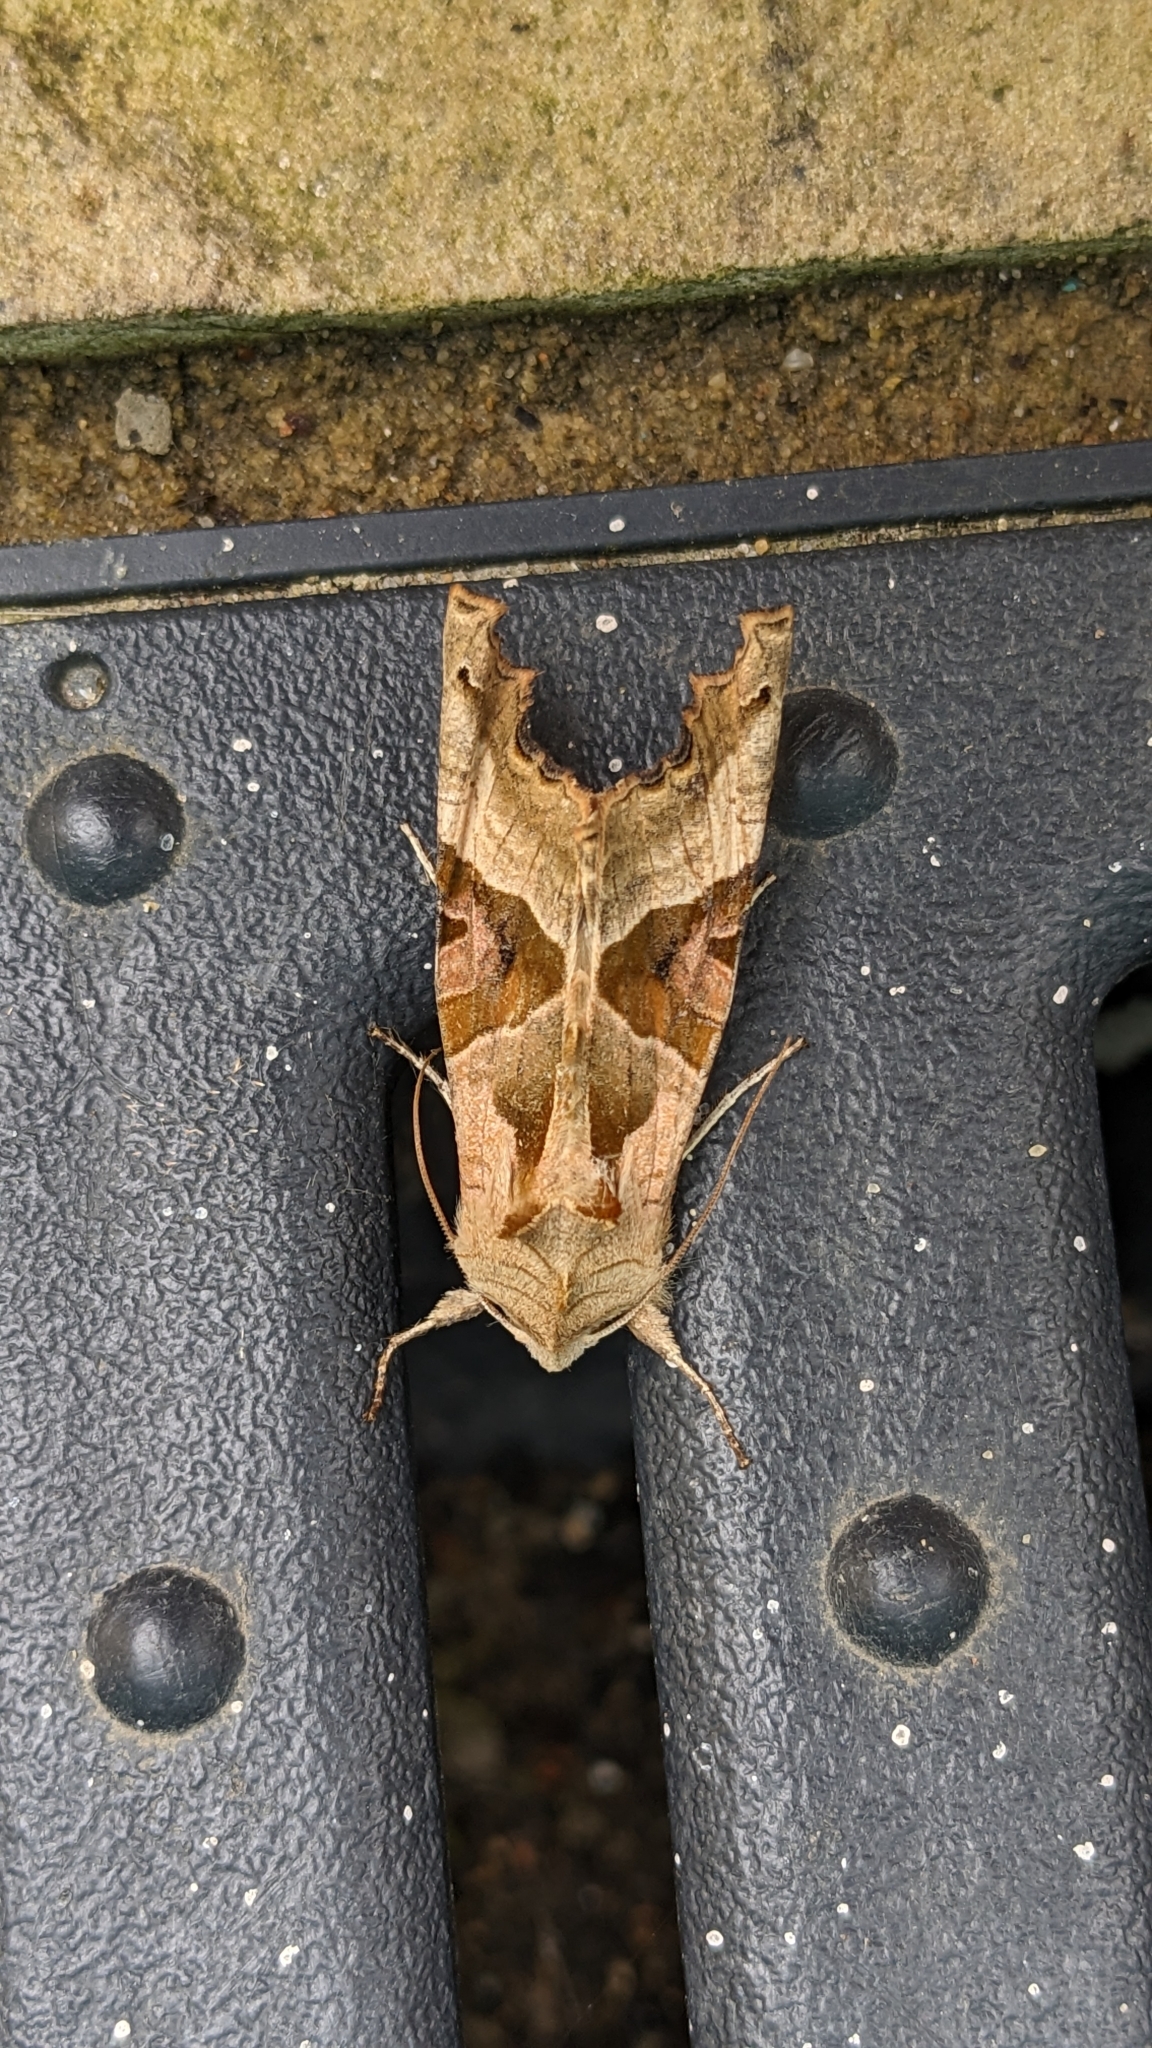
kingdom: Animalia
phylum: Arthropoda
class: Insecta
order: Lepidoptera
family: Noctuidae
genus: Phlogophora
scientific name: Phlogophora meticulosa
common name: Angle shades
